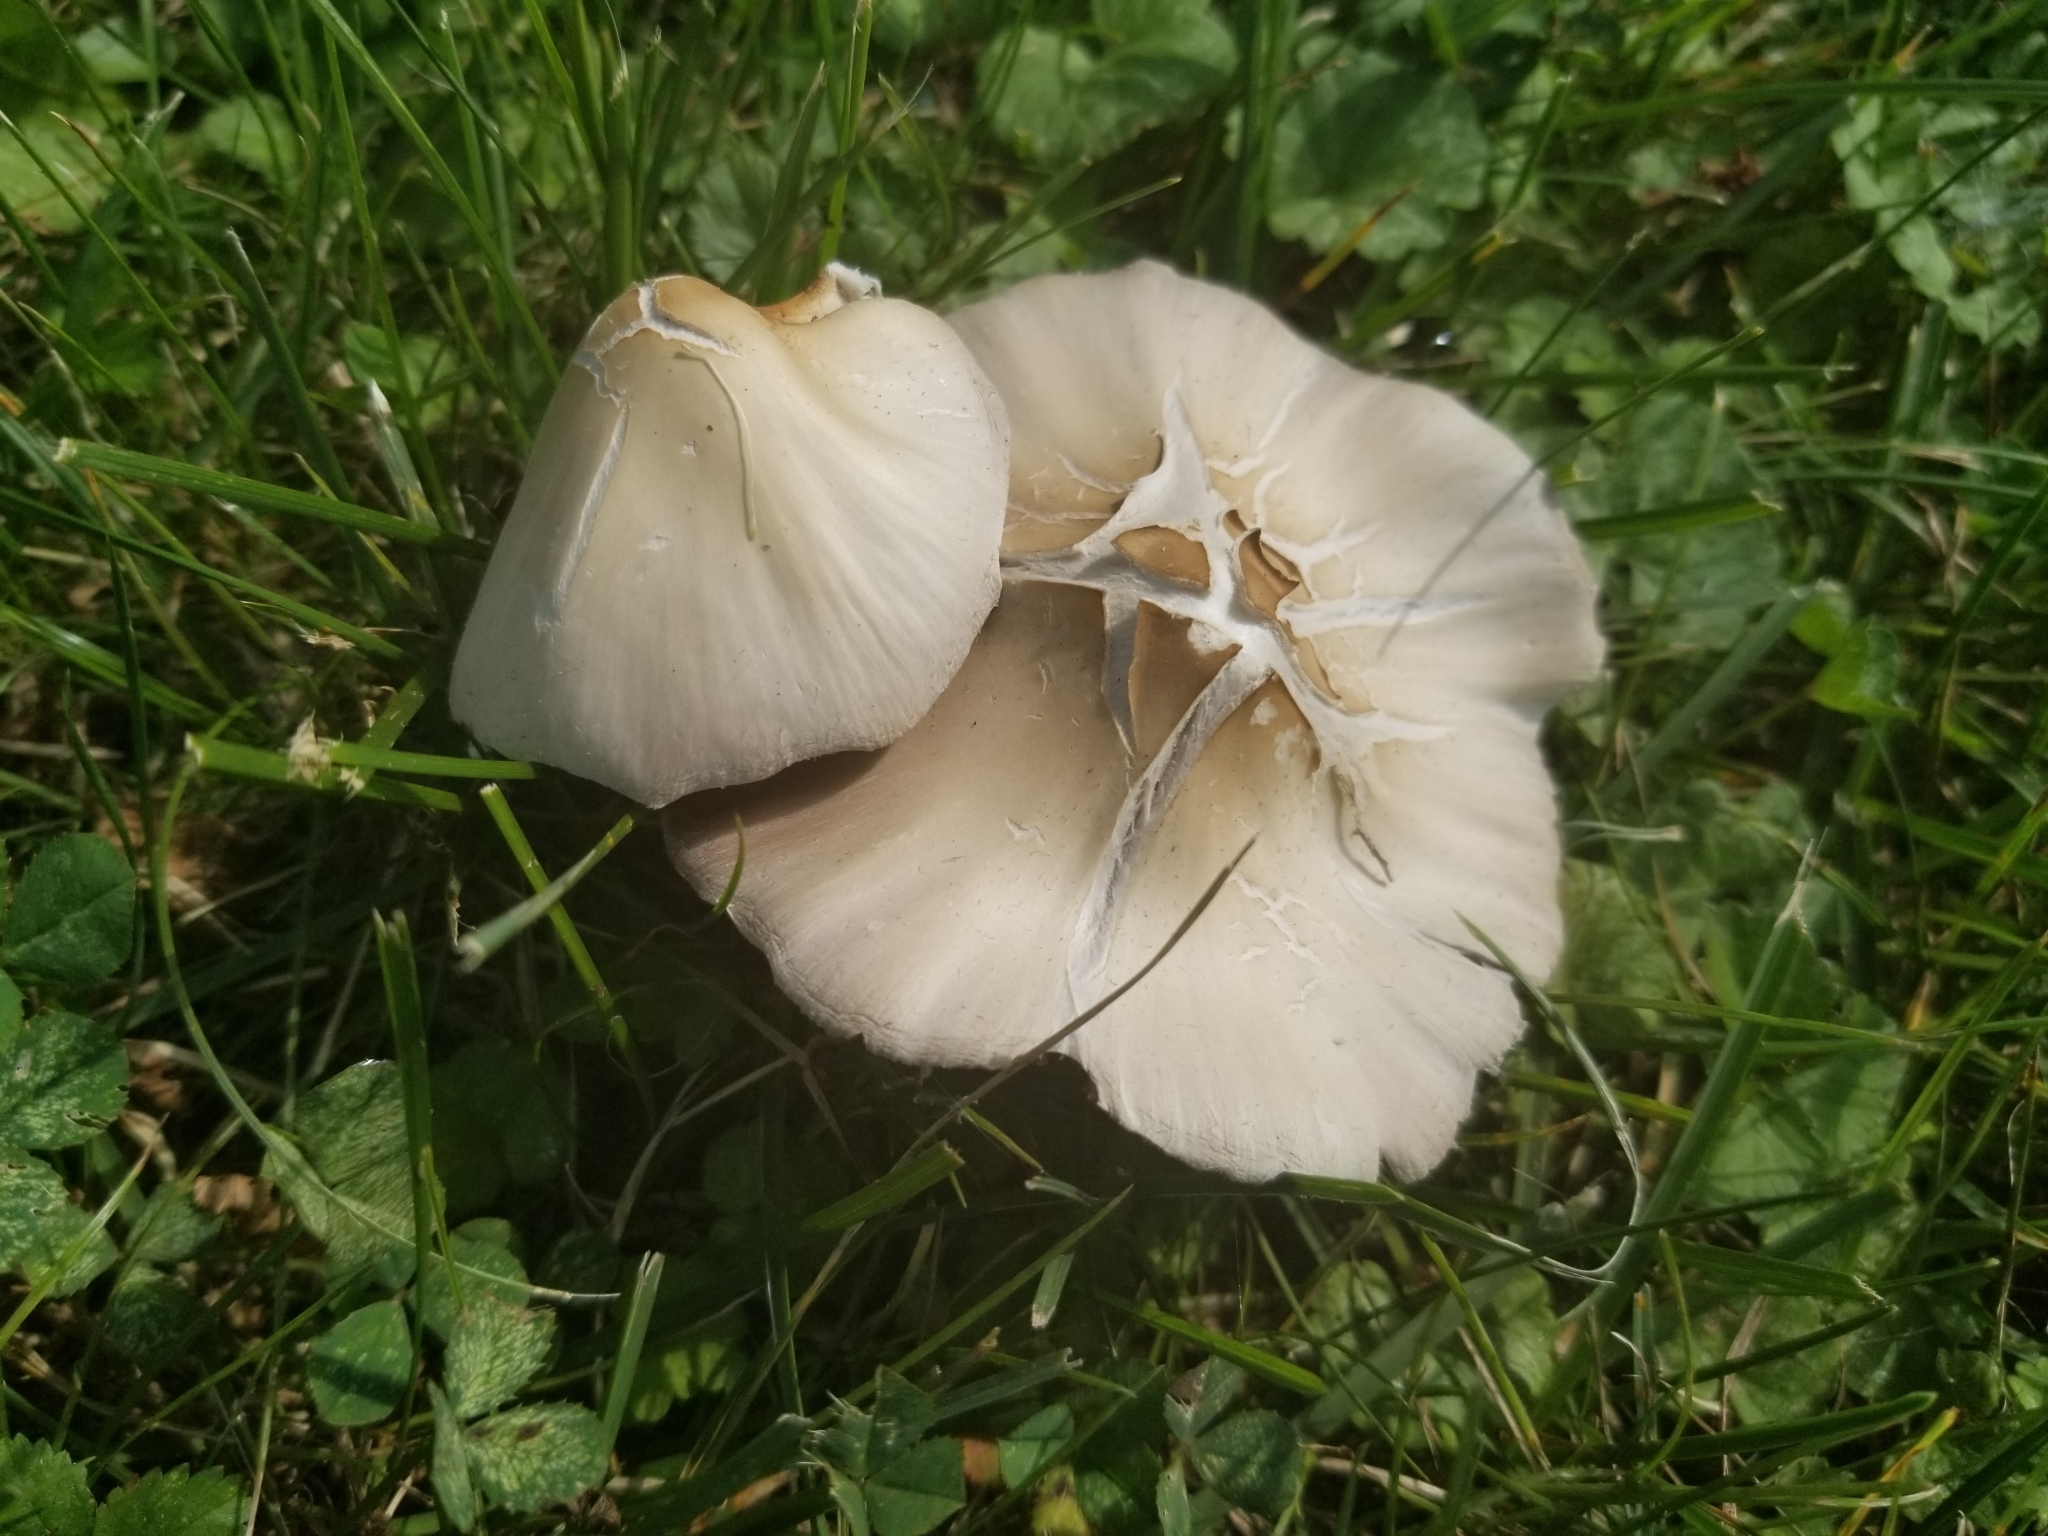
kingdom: Fungi
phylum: Basidiomycota
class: Agaricomycetes
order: Agaricales
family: Psathyrellaceae
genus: Candolleomyces
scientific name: Candolleomyces candolleanus
